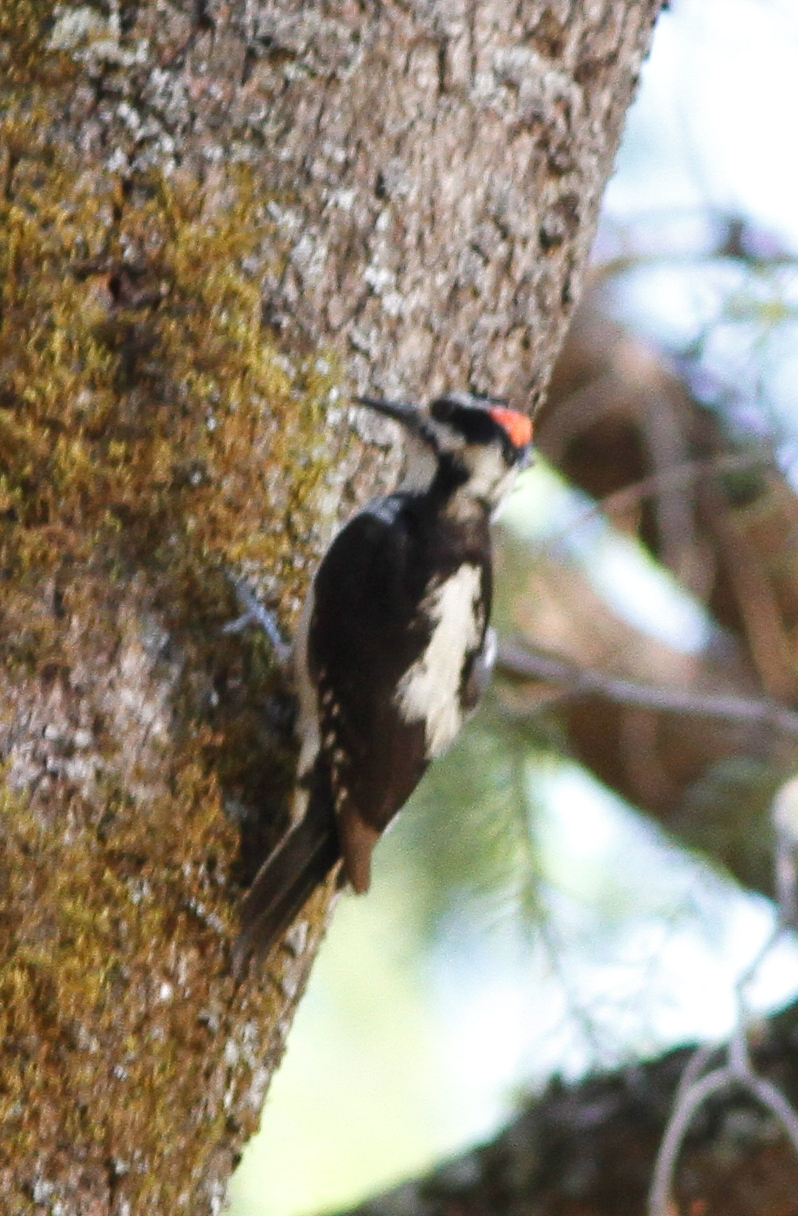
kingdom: Animalia
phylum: Chordata
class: Aves
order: Piciformes
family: Picidae
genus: Leuconotopicus
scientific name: Leuconotopicus villosus
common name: Hairy woodpecker
